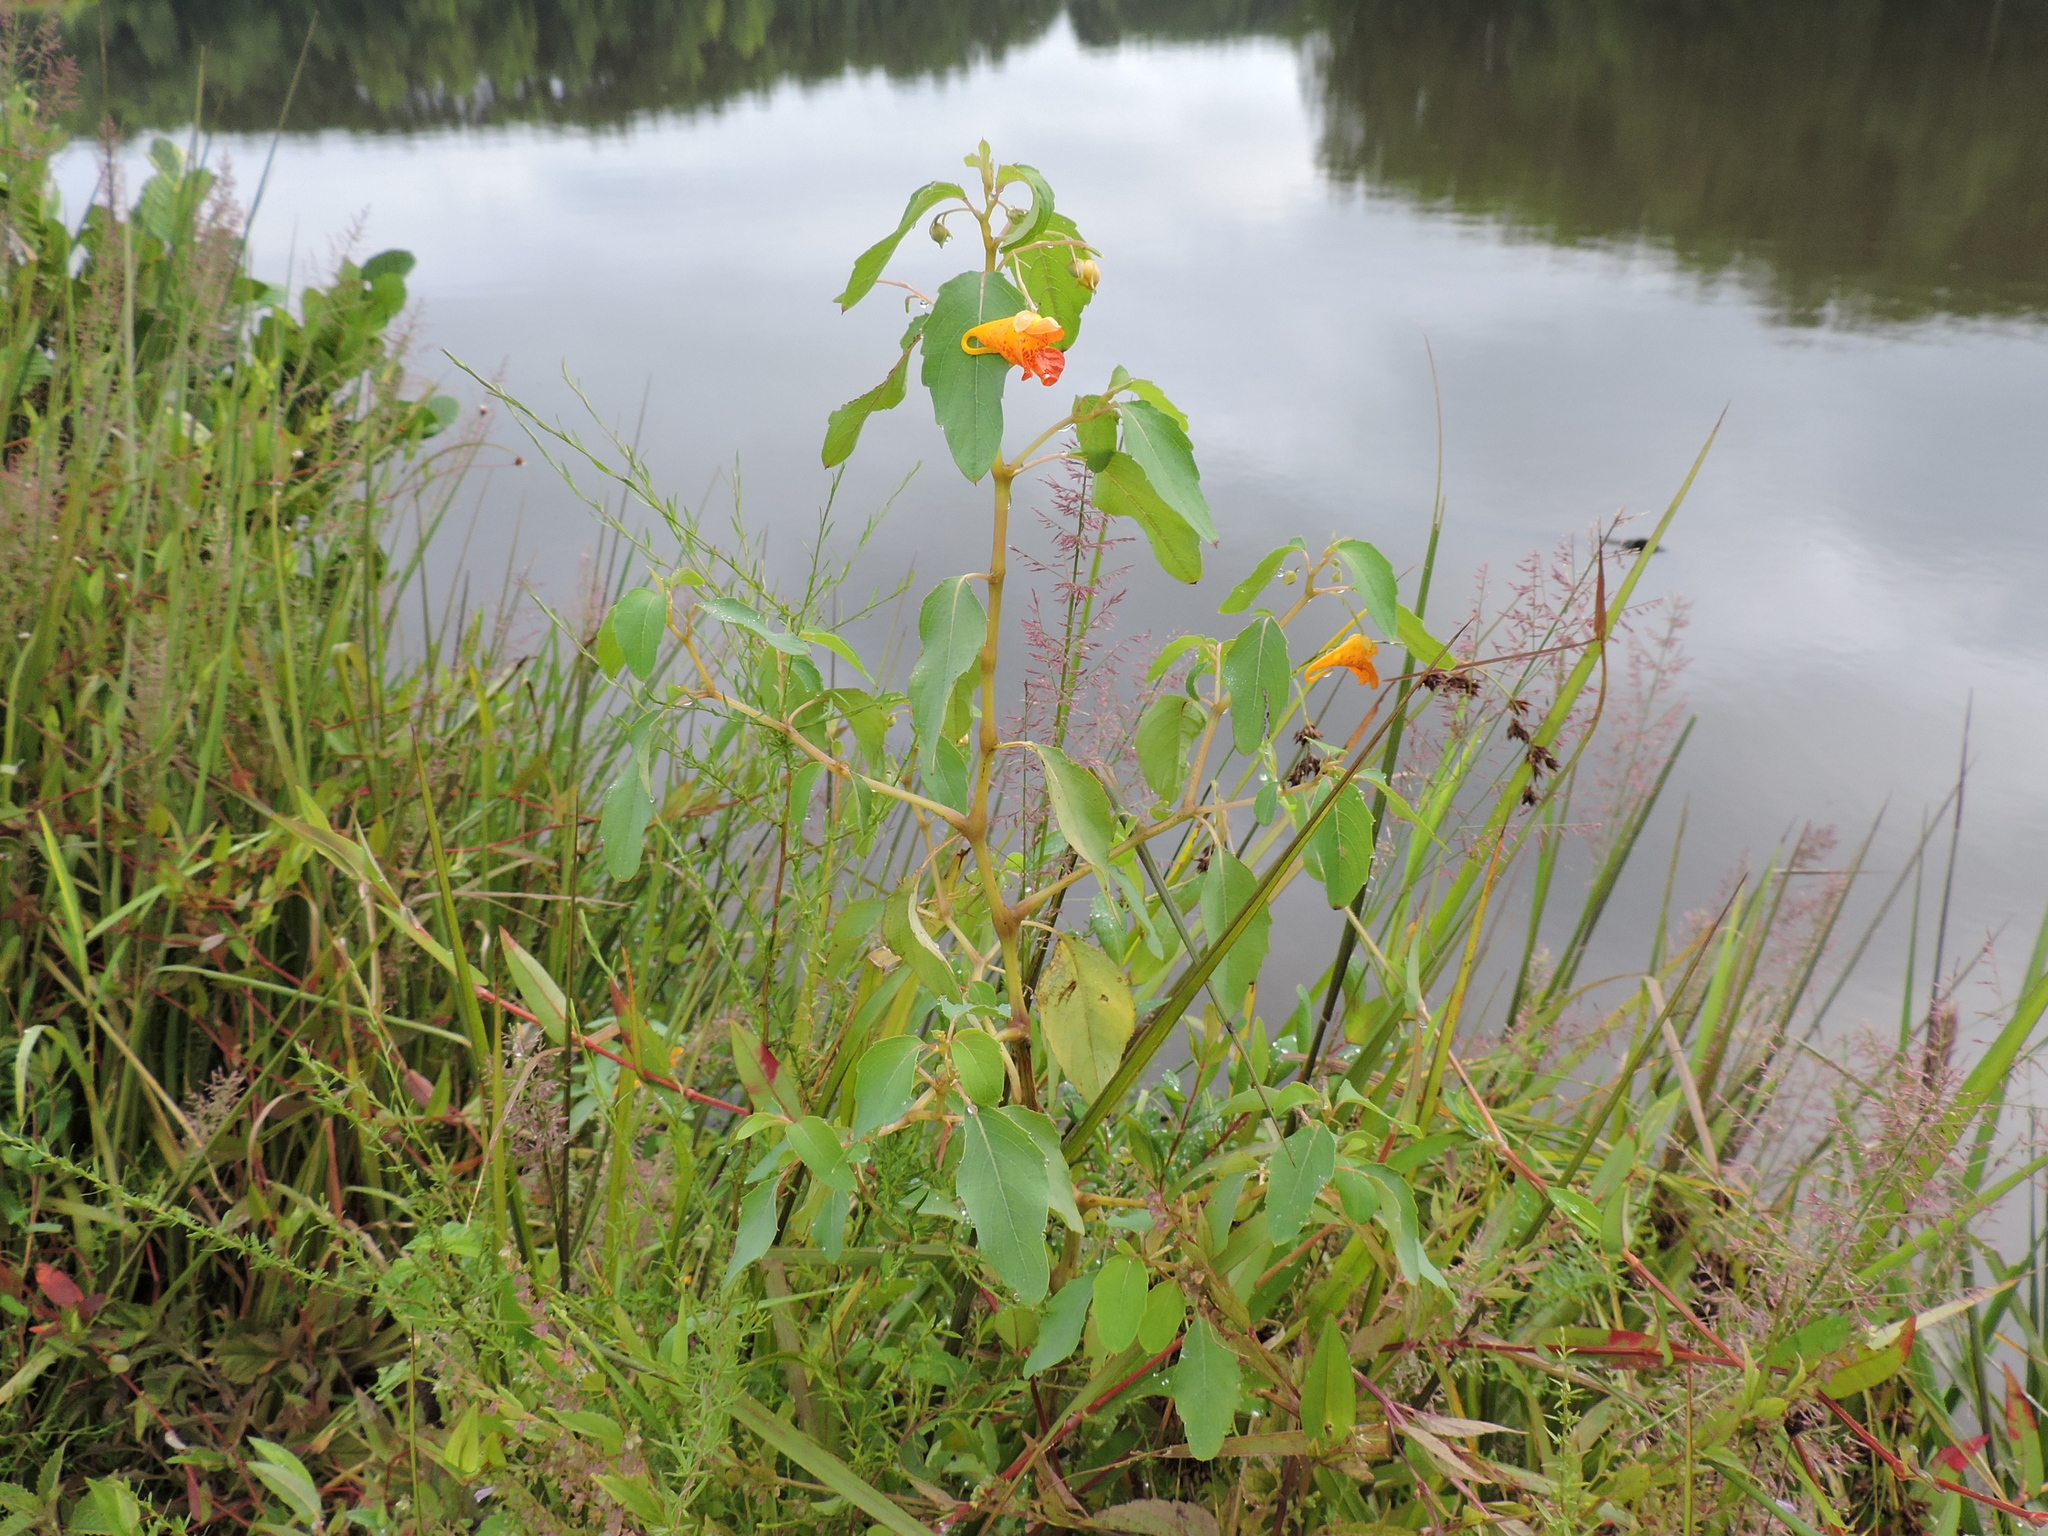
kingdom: Plantae
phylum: Tracheophyta
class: Magnoliopsida
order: Ericales
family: Balsaminaceae
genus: Impatiens
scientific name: Impatiens capensis
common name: Orange balsam
